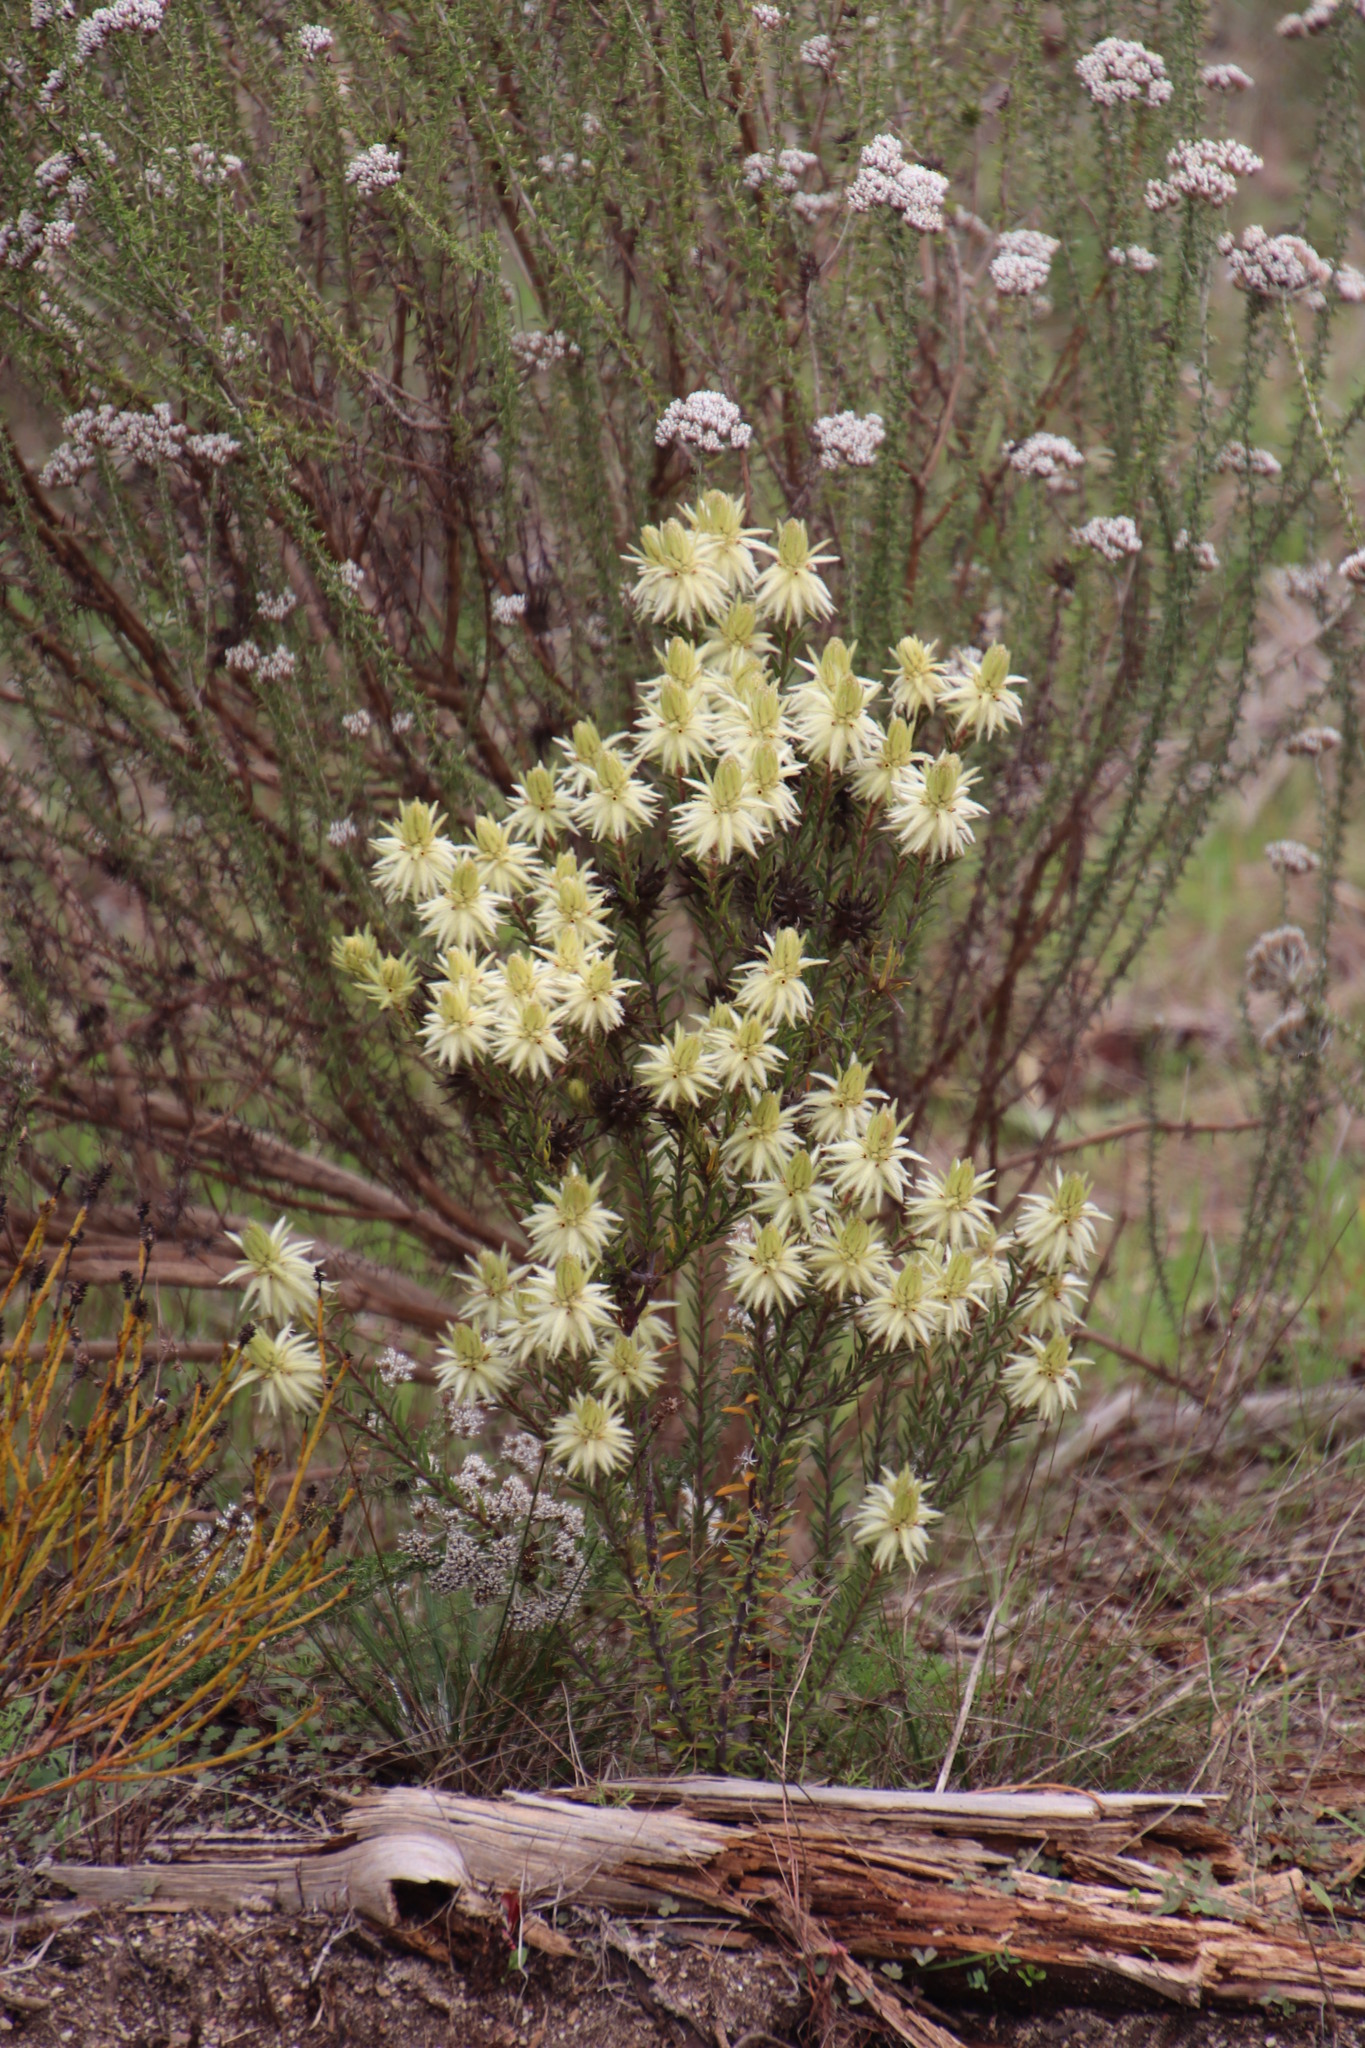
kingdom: Plantae
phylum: Tracheophyta
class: Magnoliopsida
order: Rosales
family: Rhamnaceae
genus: Phylica
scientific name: Phylica pubescens
